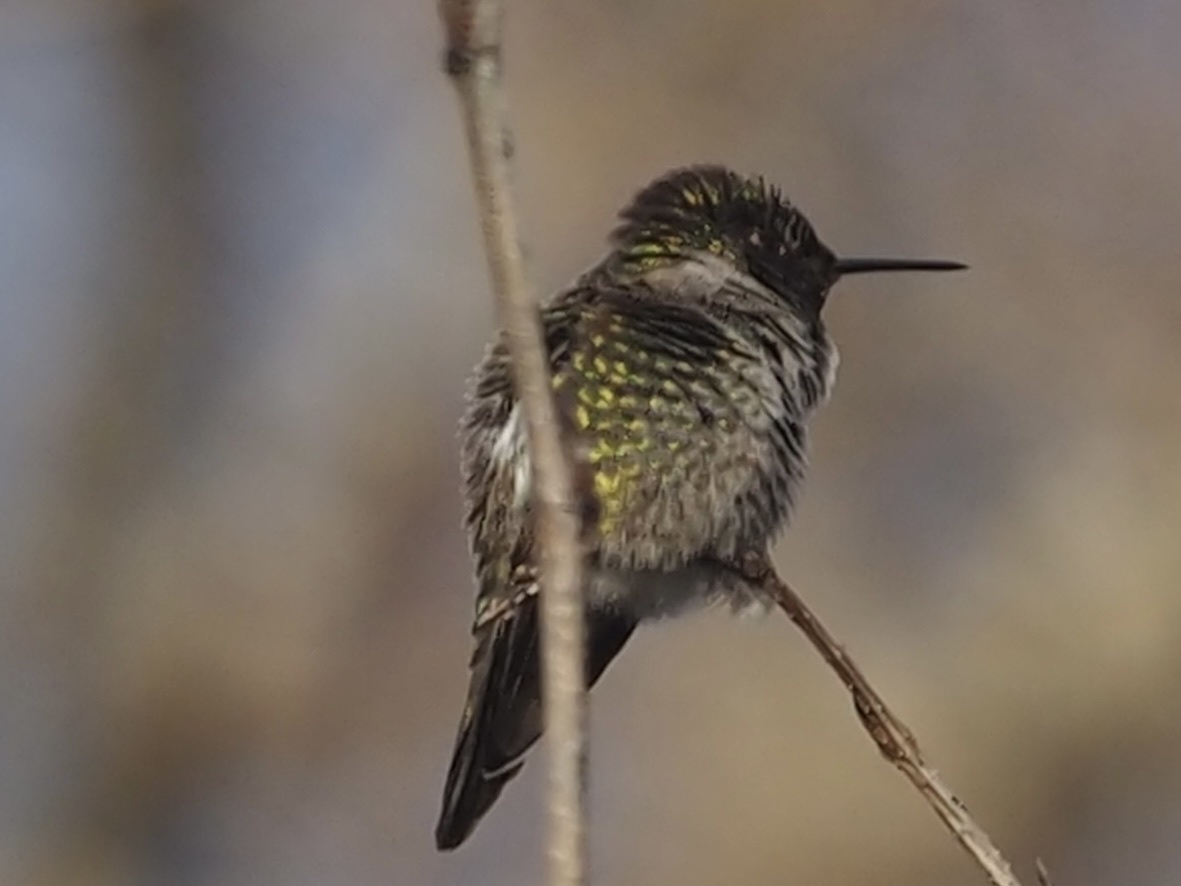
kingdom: Animalia
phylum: Chordata
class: Aves
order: Apodiformes
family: Trochilidae
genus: Calypte
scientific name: Calypte anna
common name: Anna's hummingbird
